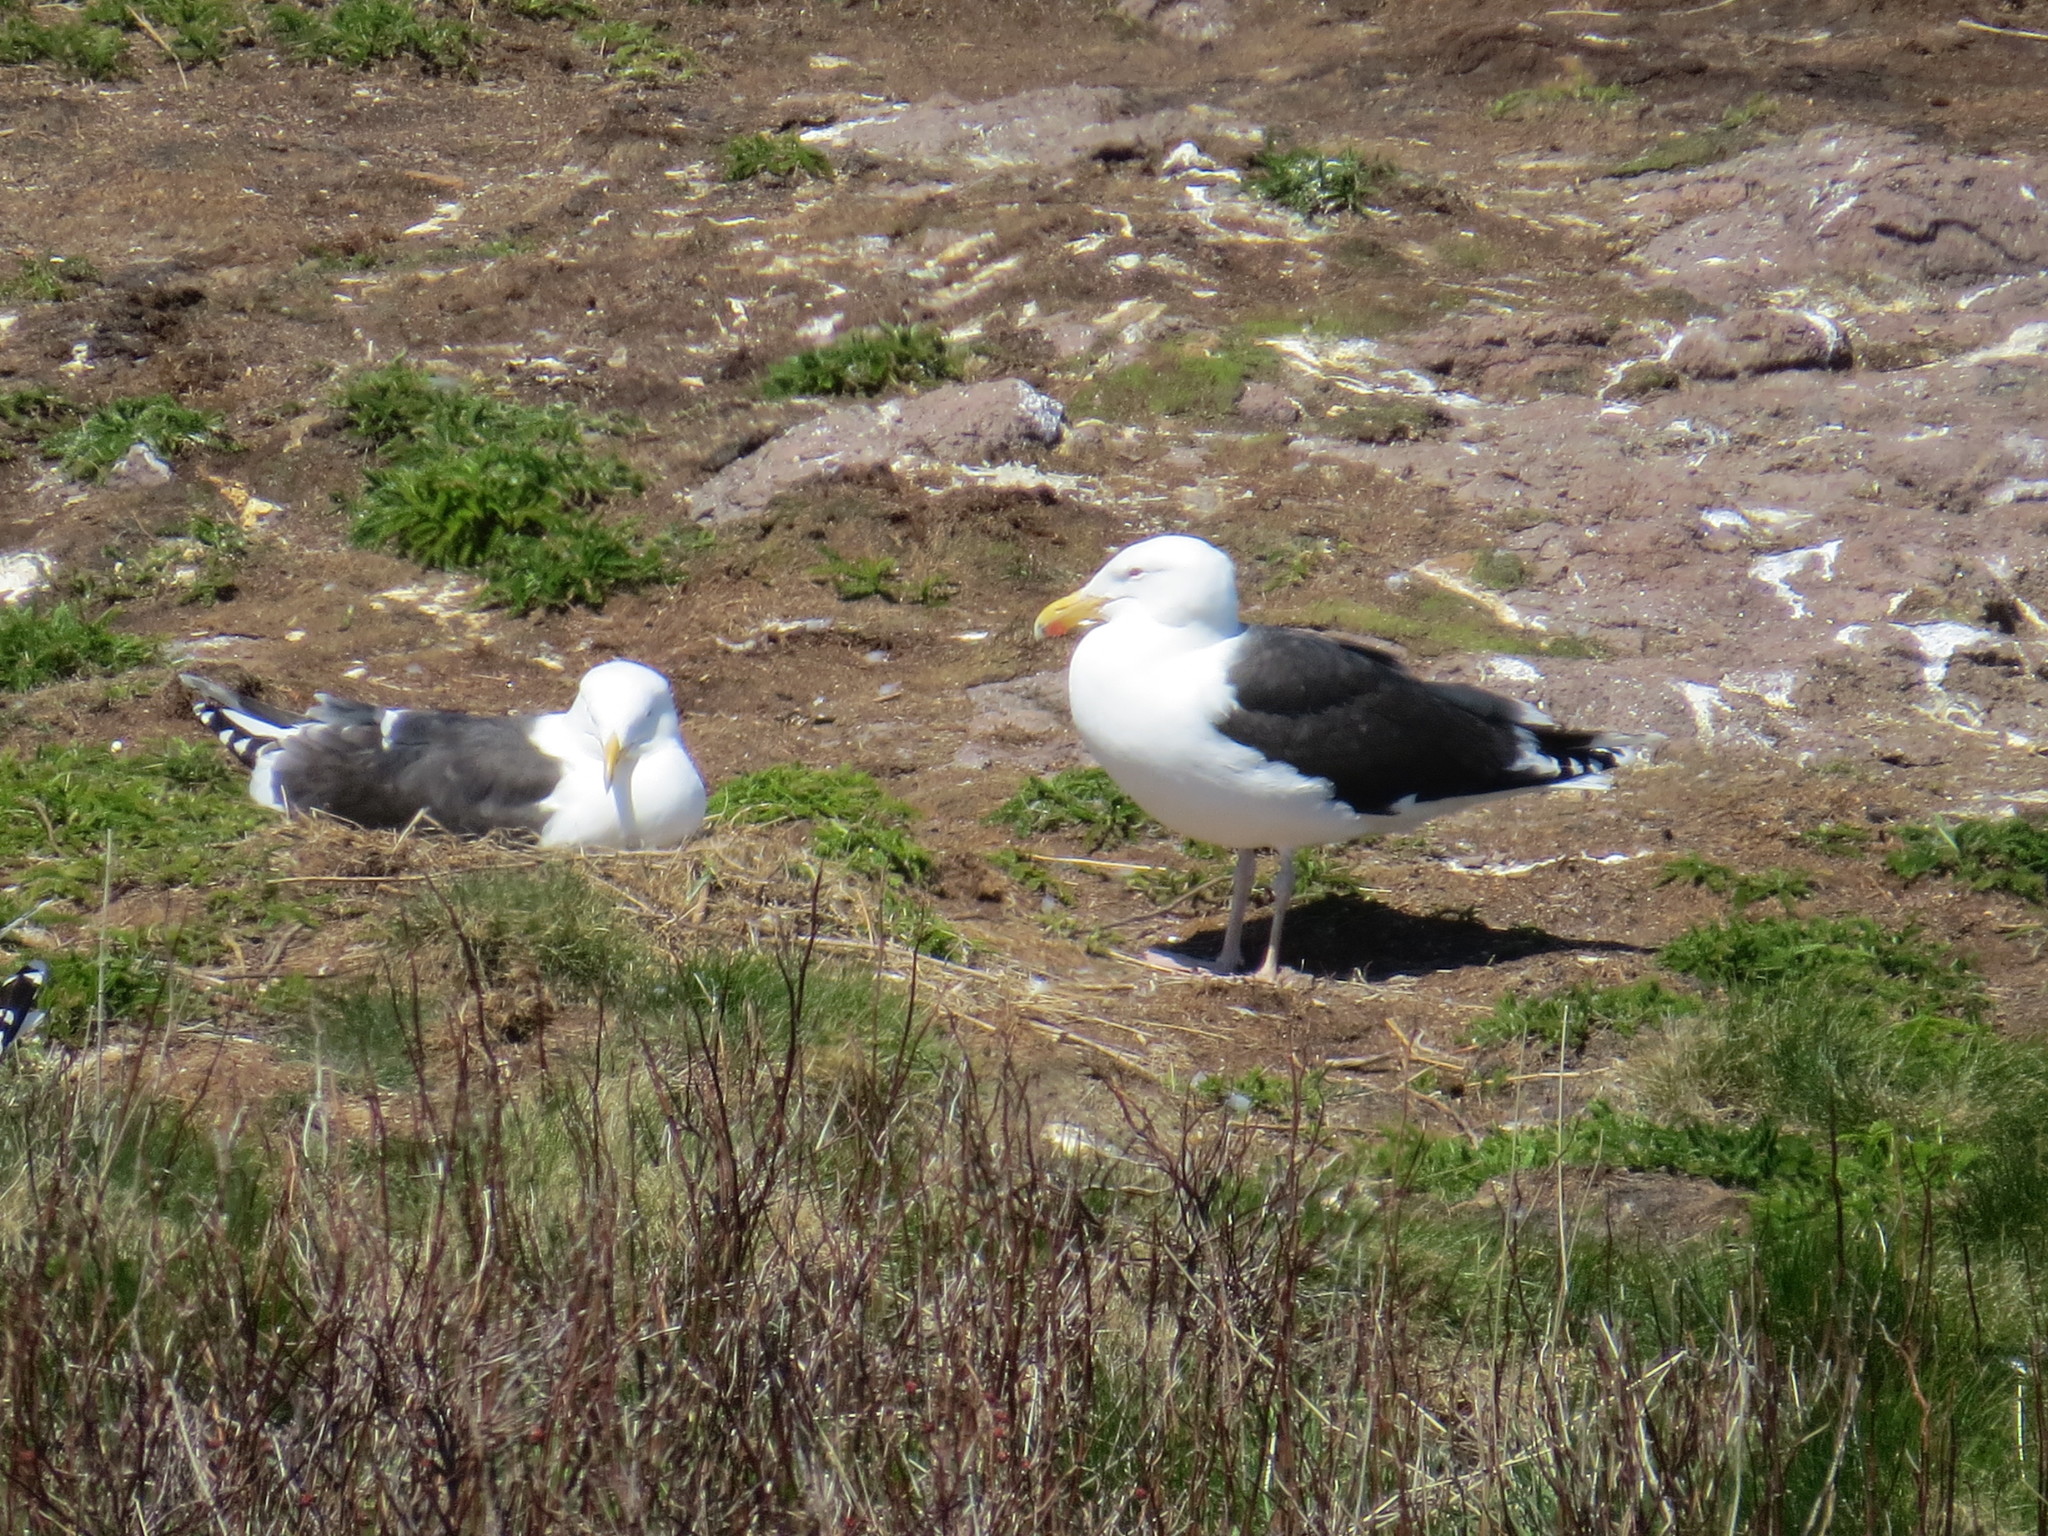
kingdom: Animalia
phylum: Chordata
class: Aves
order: Charadriiformes
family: Laridae
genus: Larus
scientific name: Larus marinus
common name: Great black-backed gull
